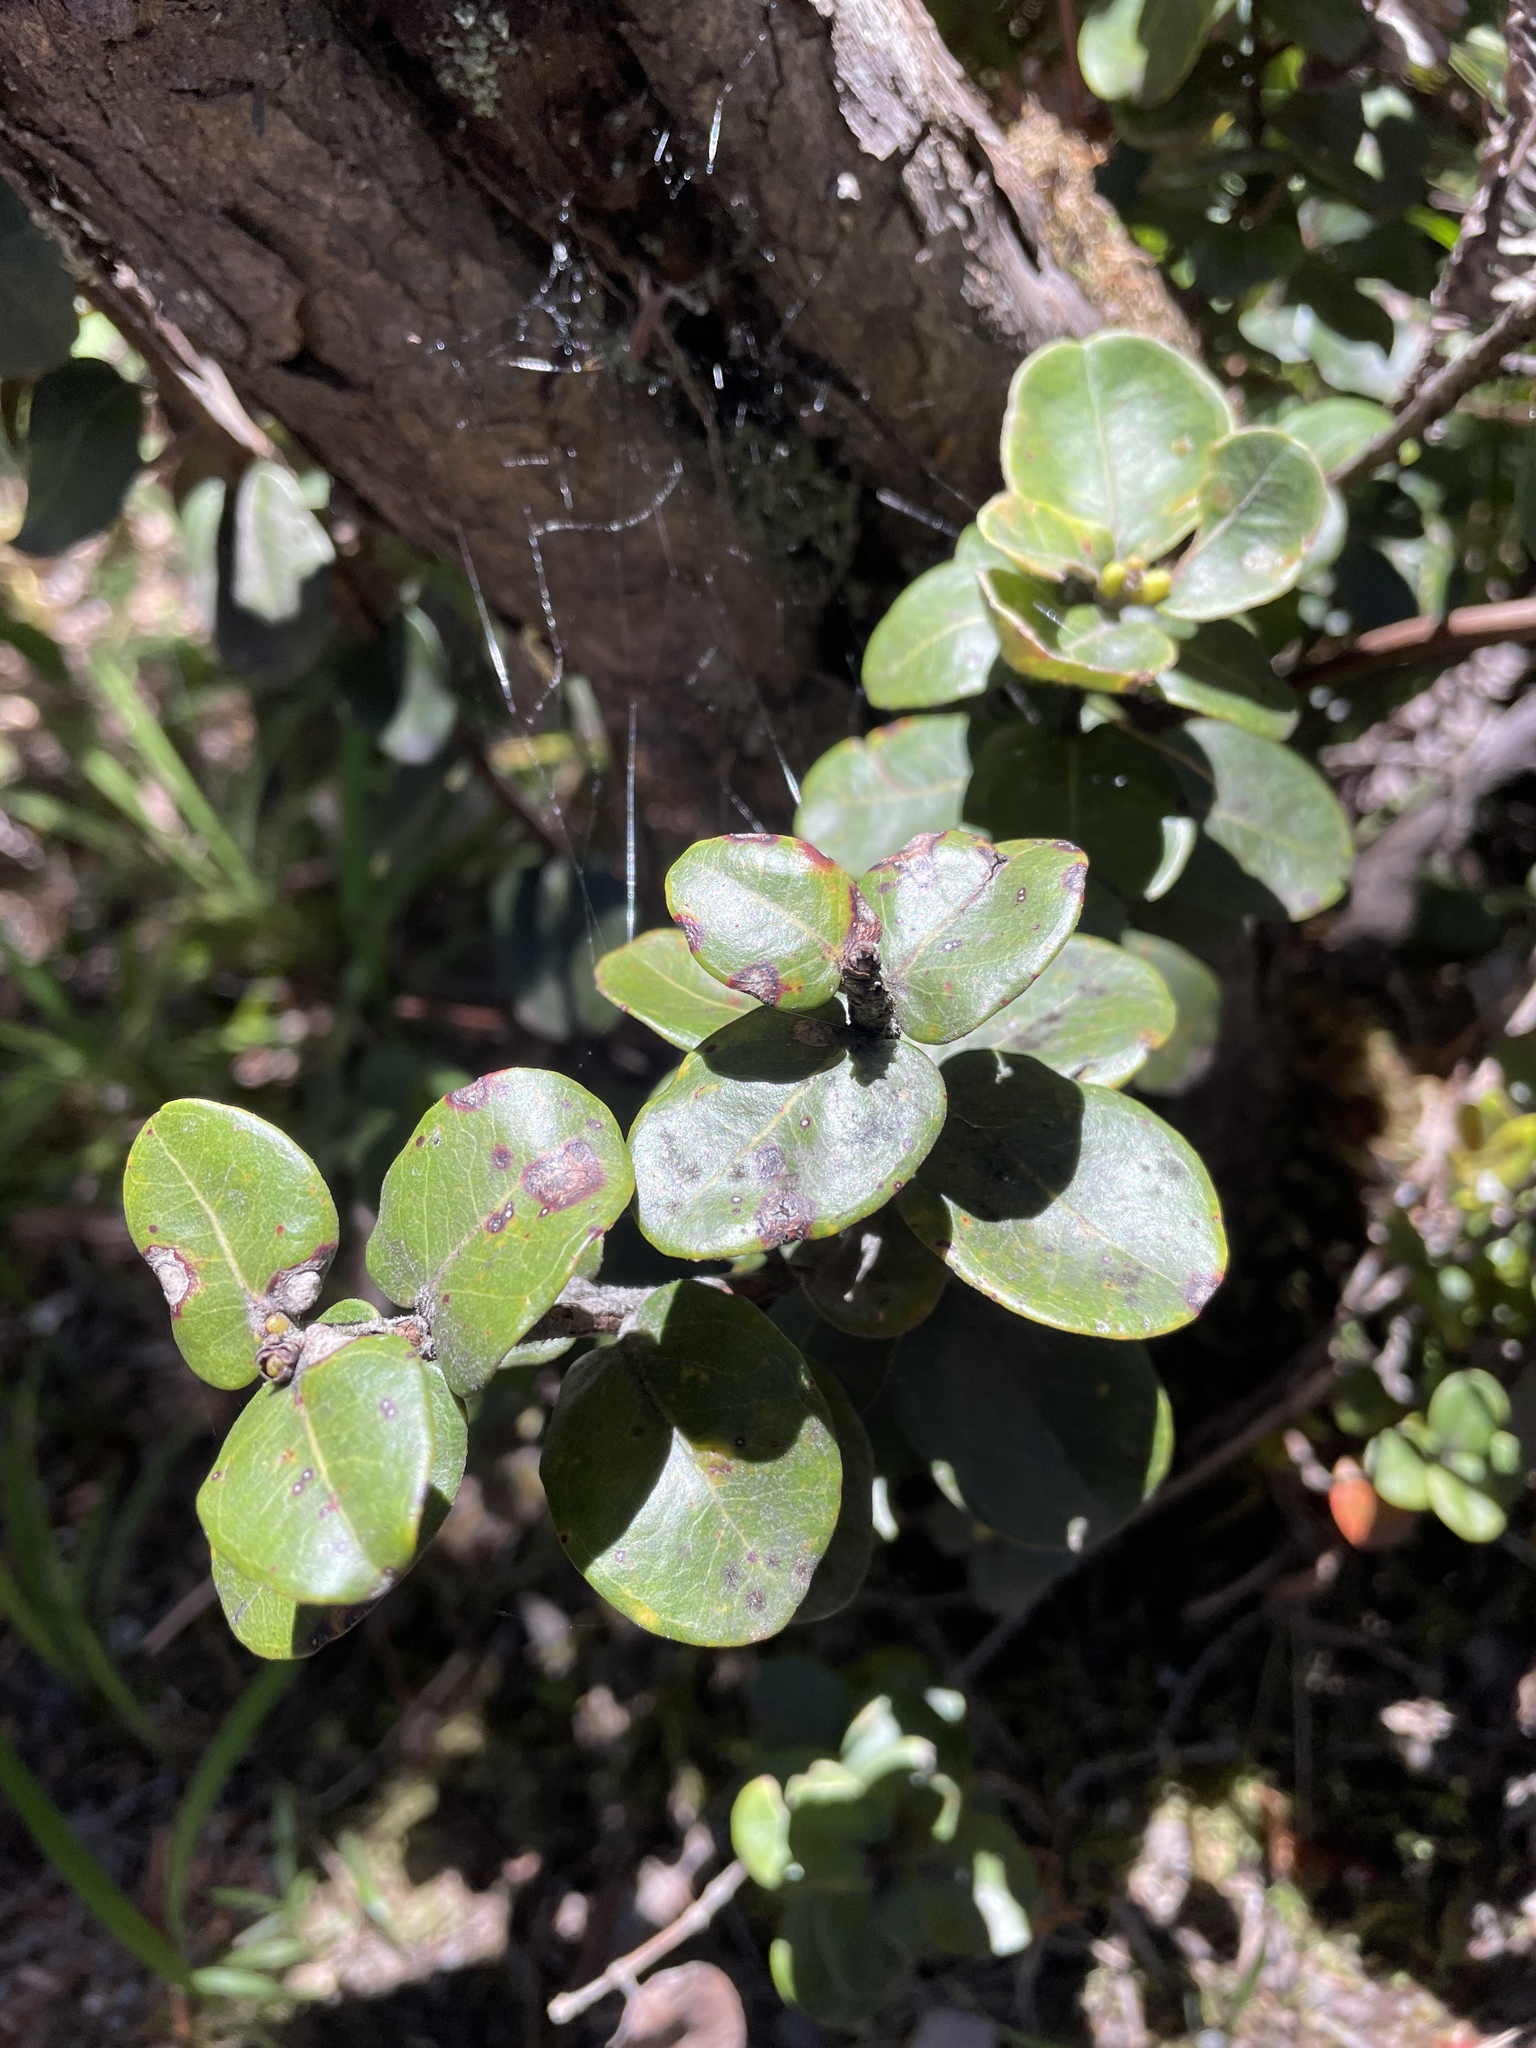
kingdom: Plantae
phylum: Tracheophyta
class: Magnoliopsida
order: Myrtales
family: Myrtaceae
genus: Metrosideros
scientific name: Metrosideros polymorpha
